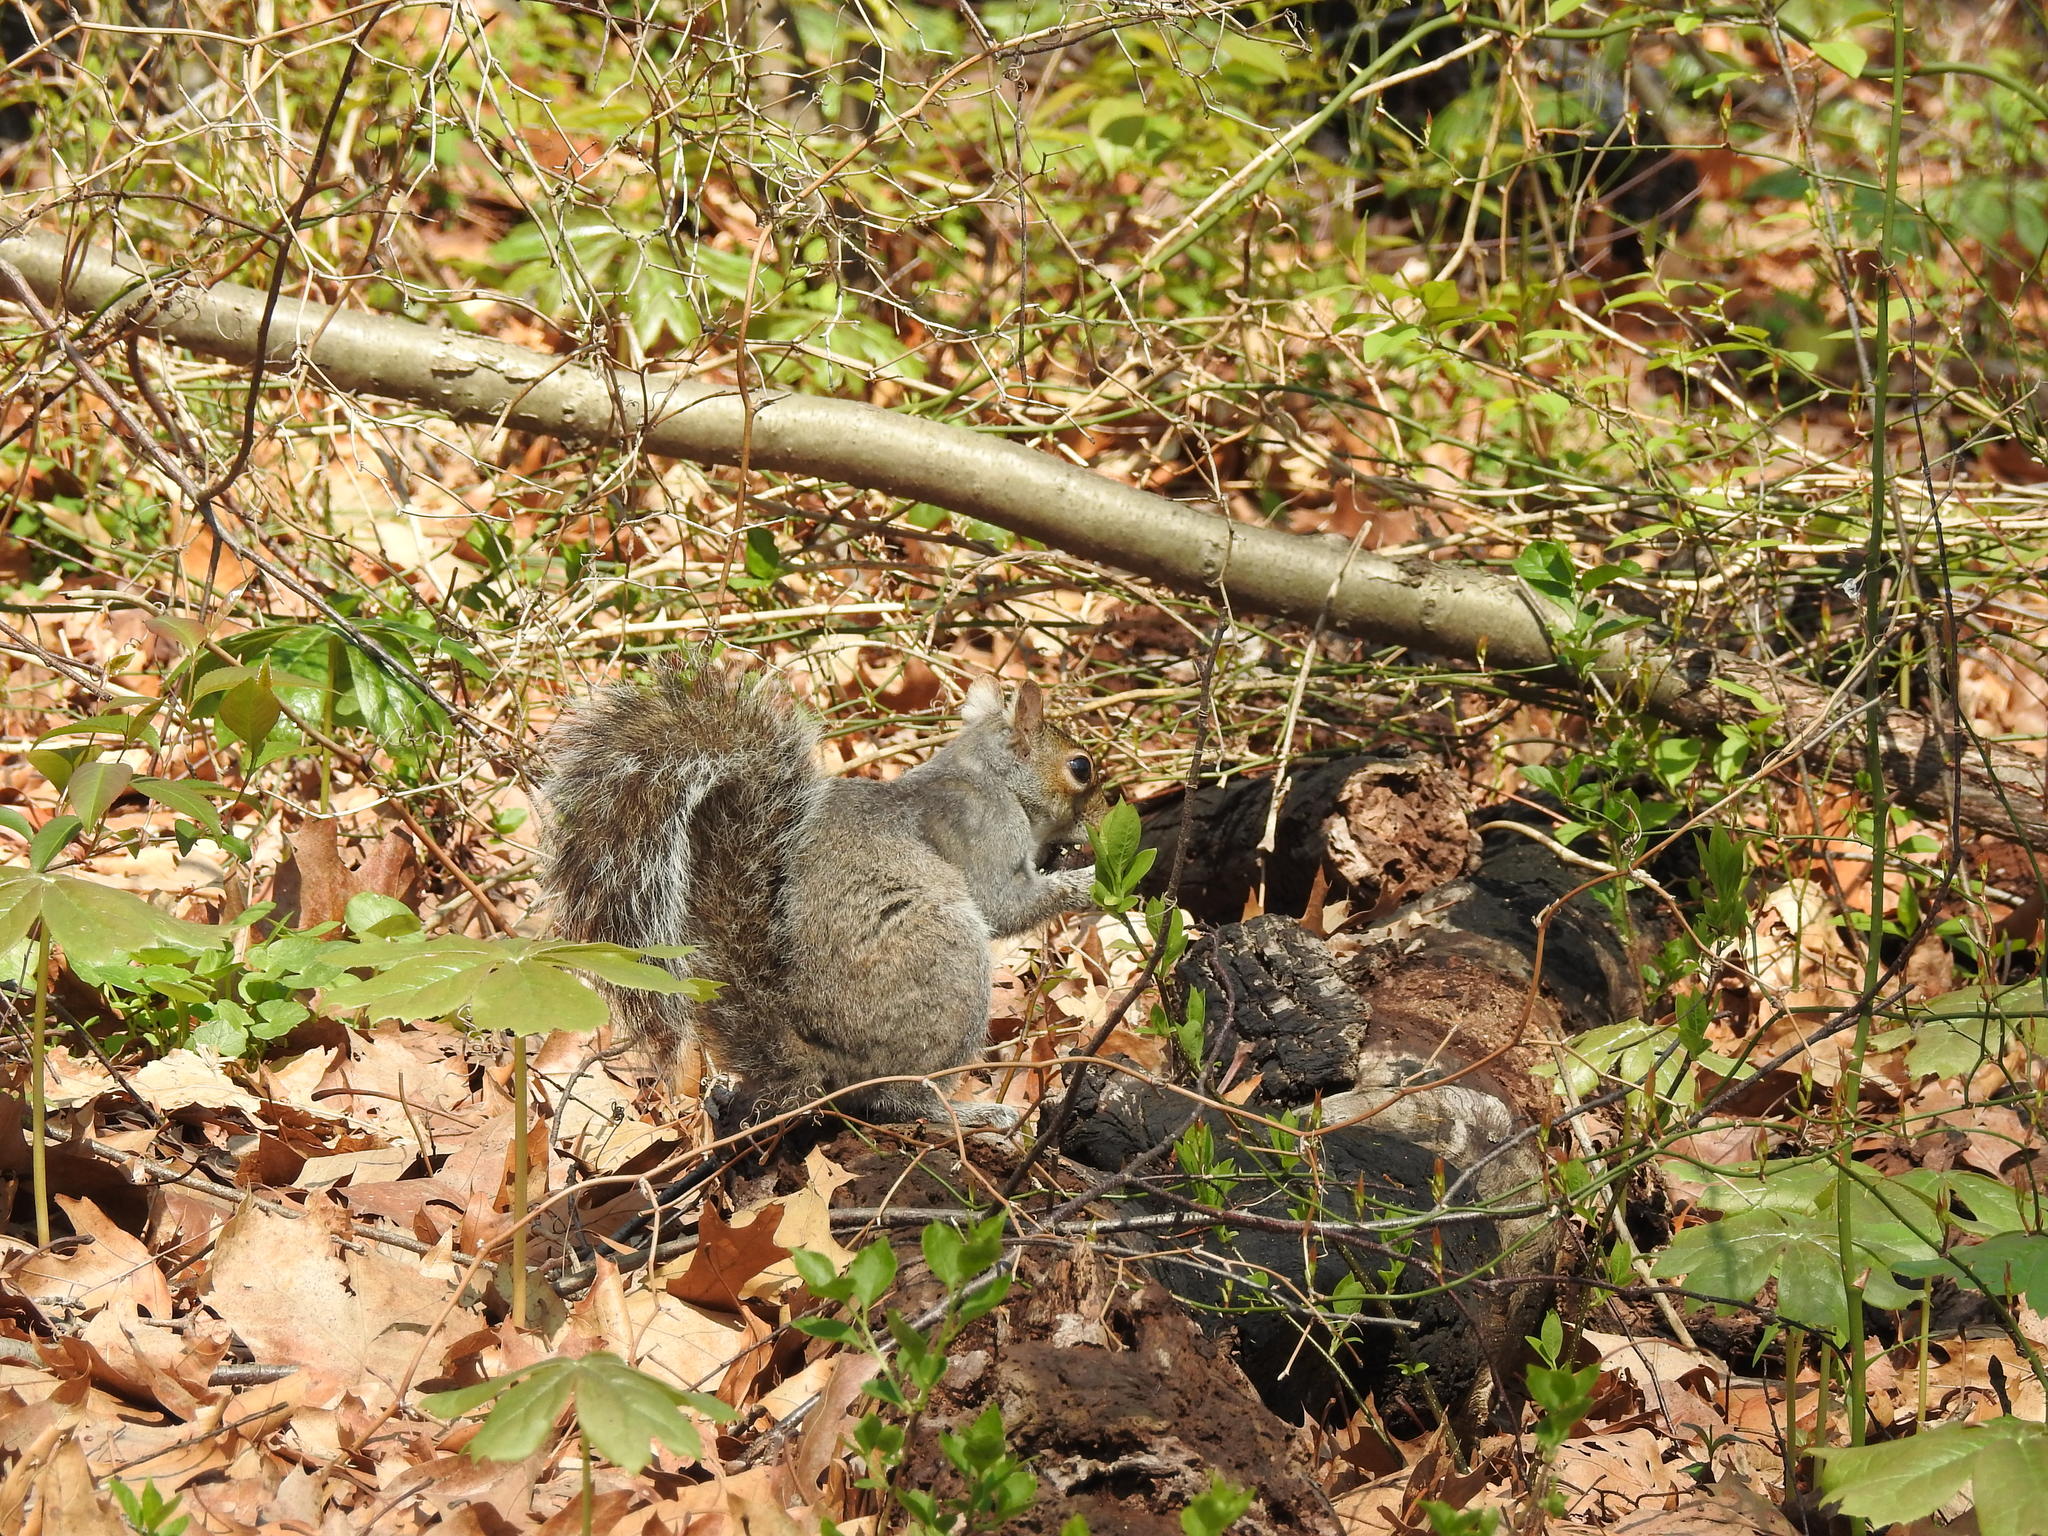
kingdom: Animalia
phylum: Chordata
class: Mammalia
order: Rodentia
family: Sciuridae
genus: Sciurus
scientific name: Sciurus carolinensis
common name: Eastern gray squirrel
